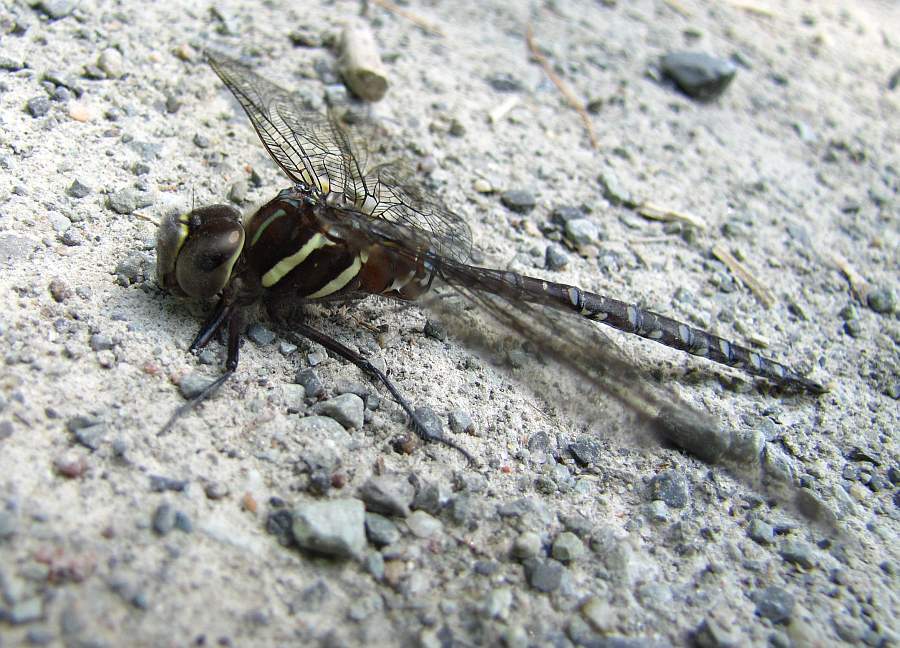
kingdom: Animalia
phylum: Arthropoda
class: Insecta
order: Odonata
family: Aeshnidae
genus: Aeshna
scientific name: Aeshna tuberculifera
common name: Aeschne à tubercules
